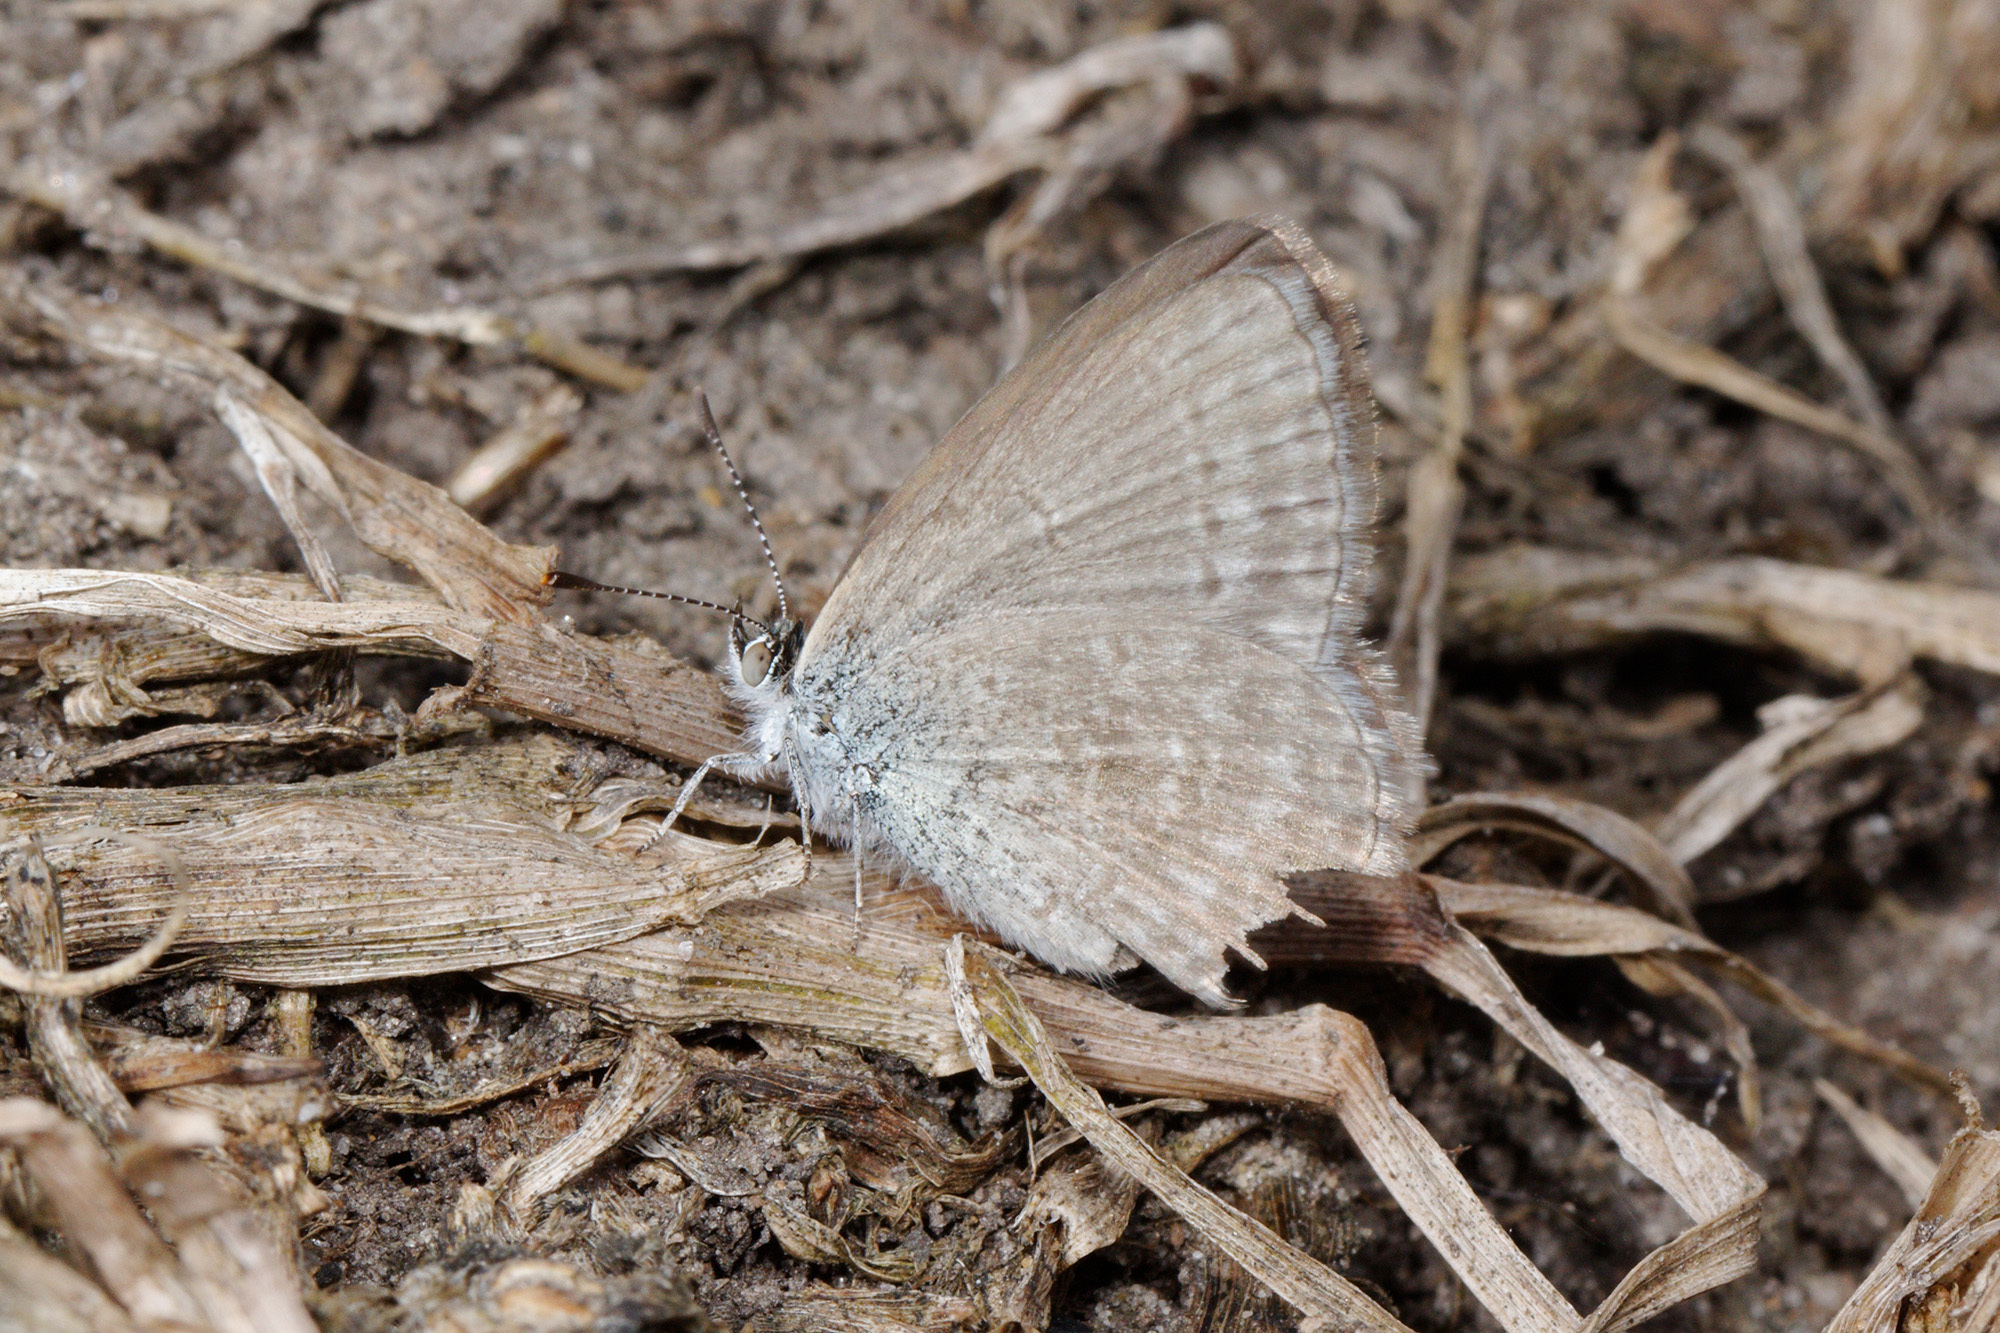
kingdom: Animalia
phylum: Arthropoda
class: Insecta
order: Lepidoptera
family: Lycaenidae
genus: Zizina
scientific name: Zizina labradus
